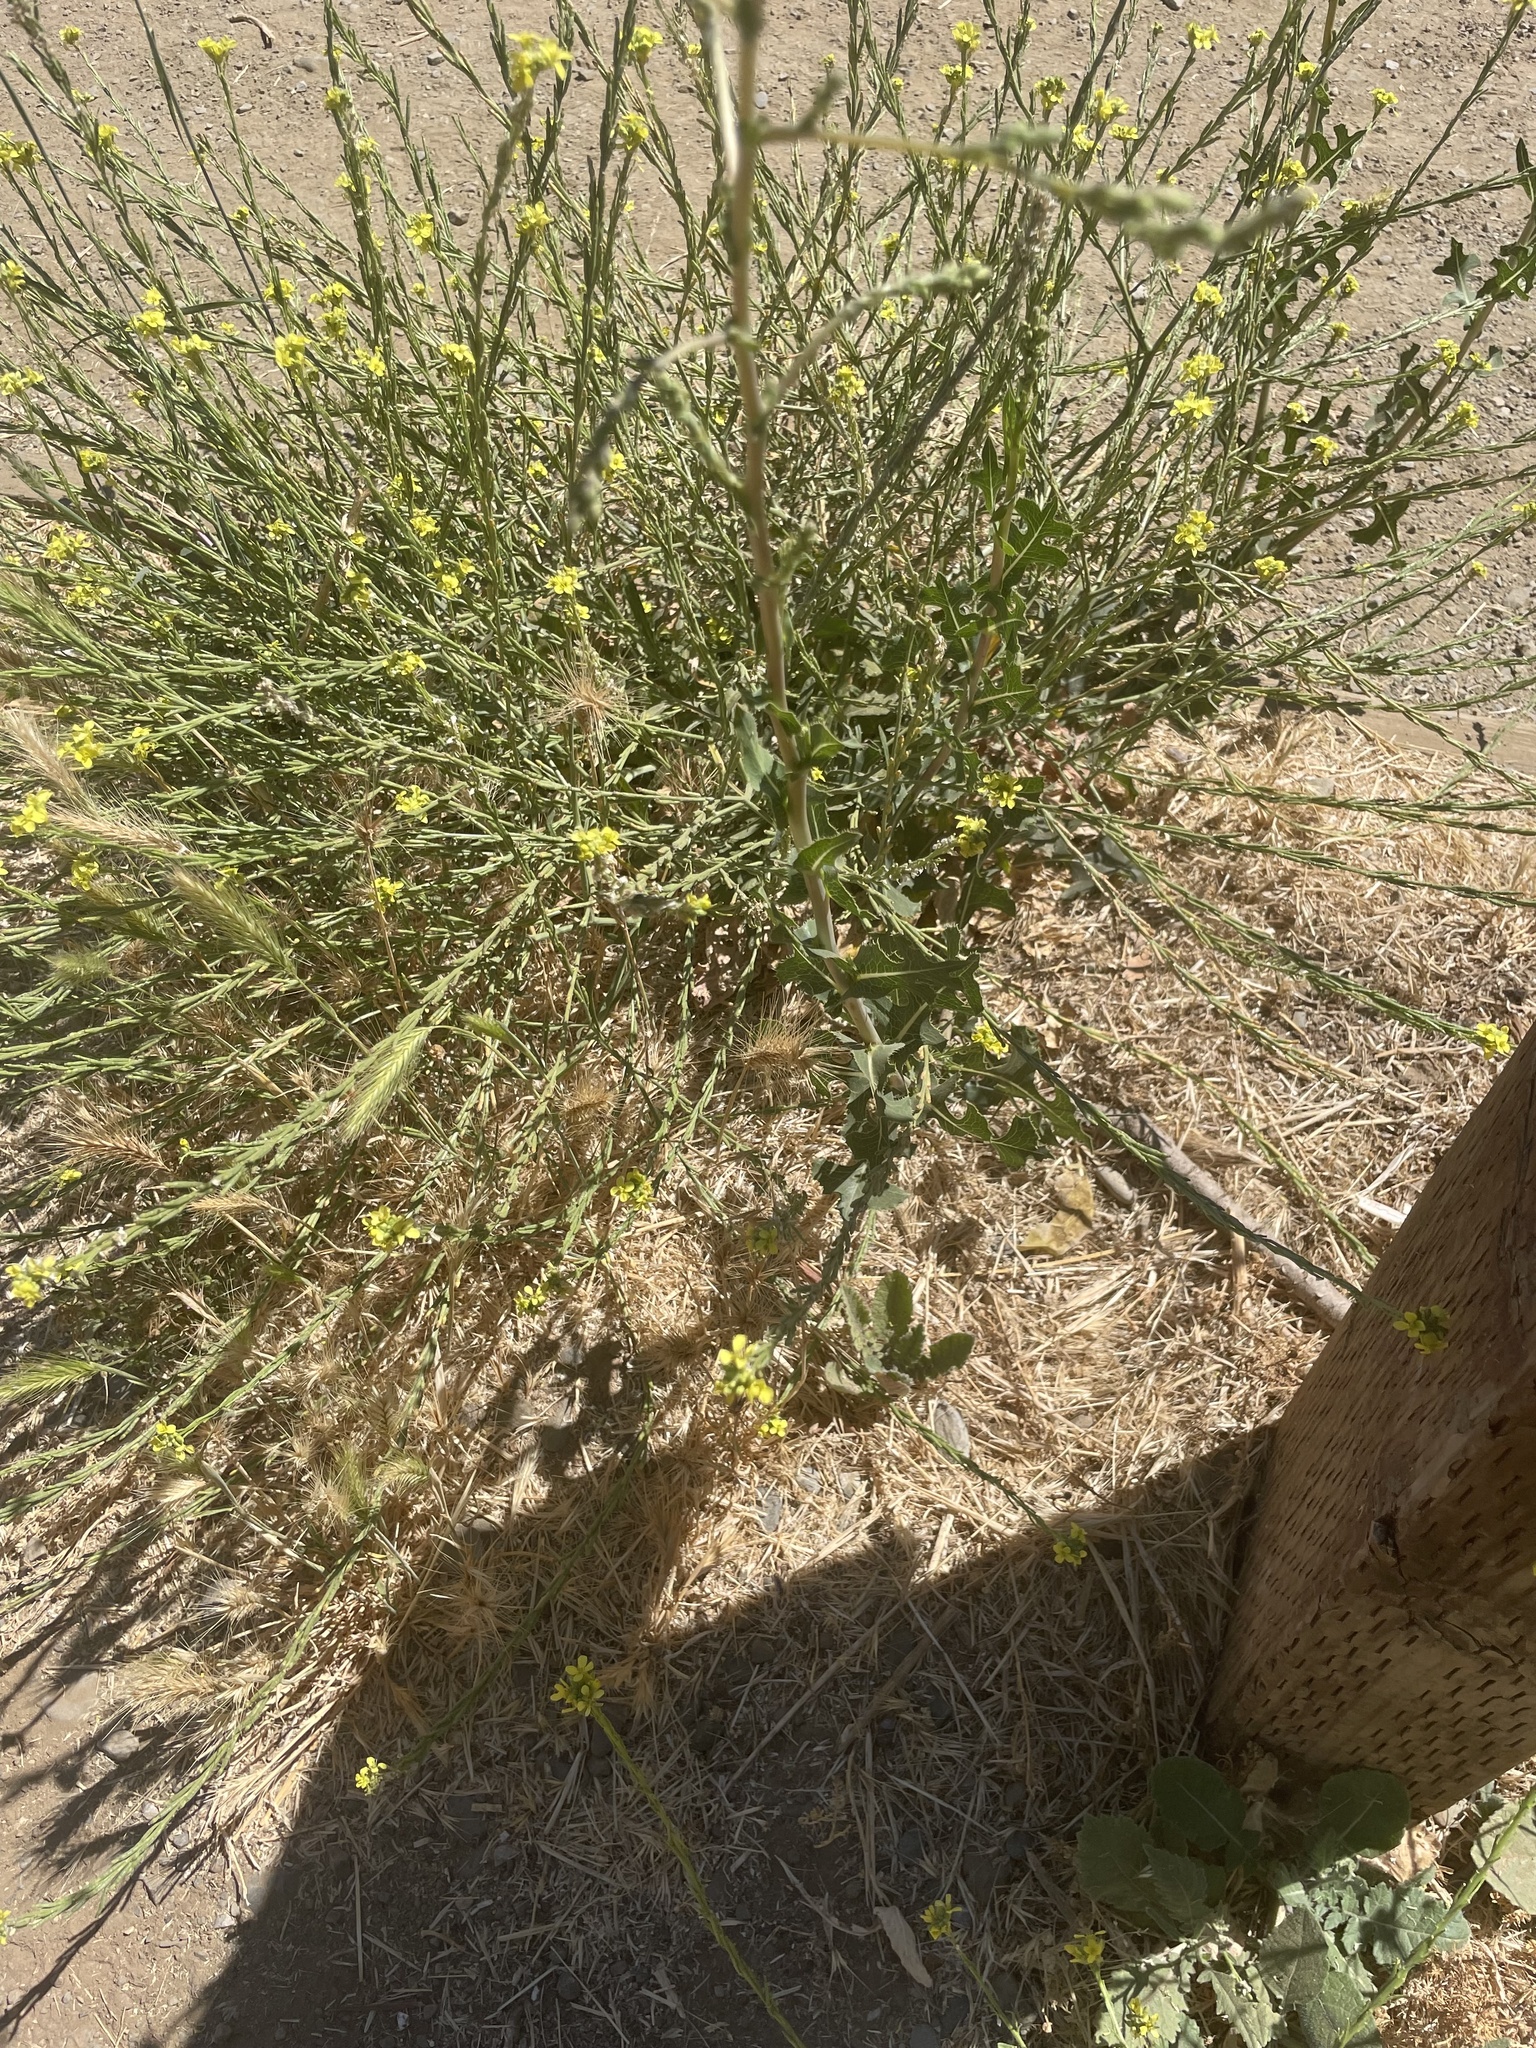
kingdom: Plantae
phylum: Tracheophyta
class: Magnoliopsida
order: Asterales
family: Asteraceae
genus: Lactuca
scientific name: Lactuca serriola
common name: Prickly lettuce
